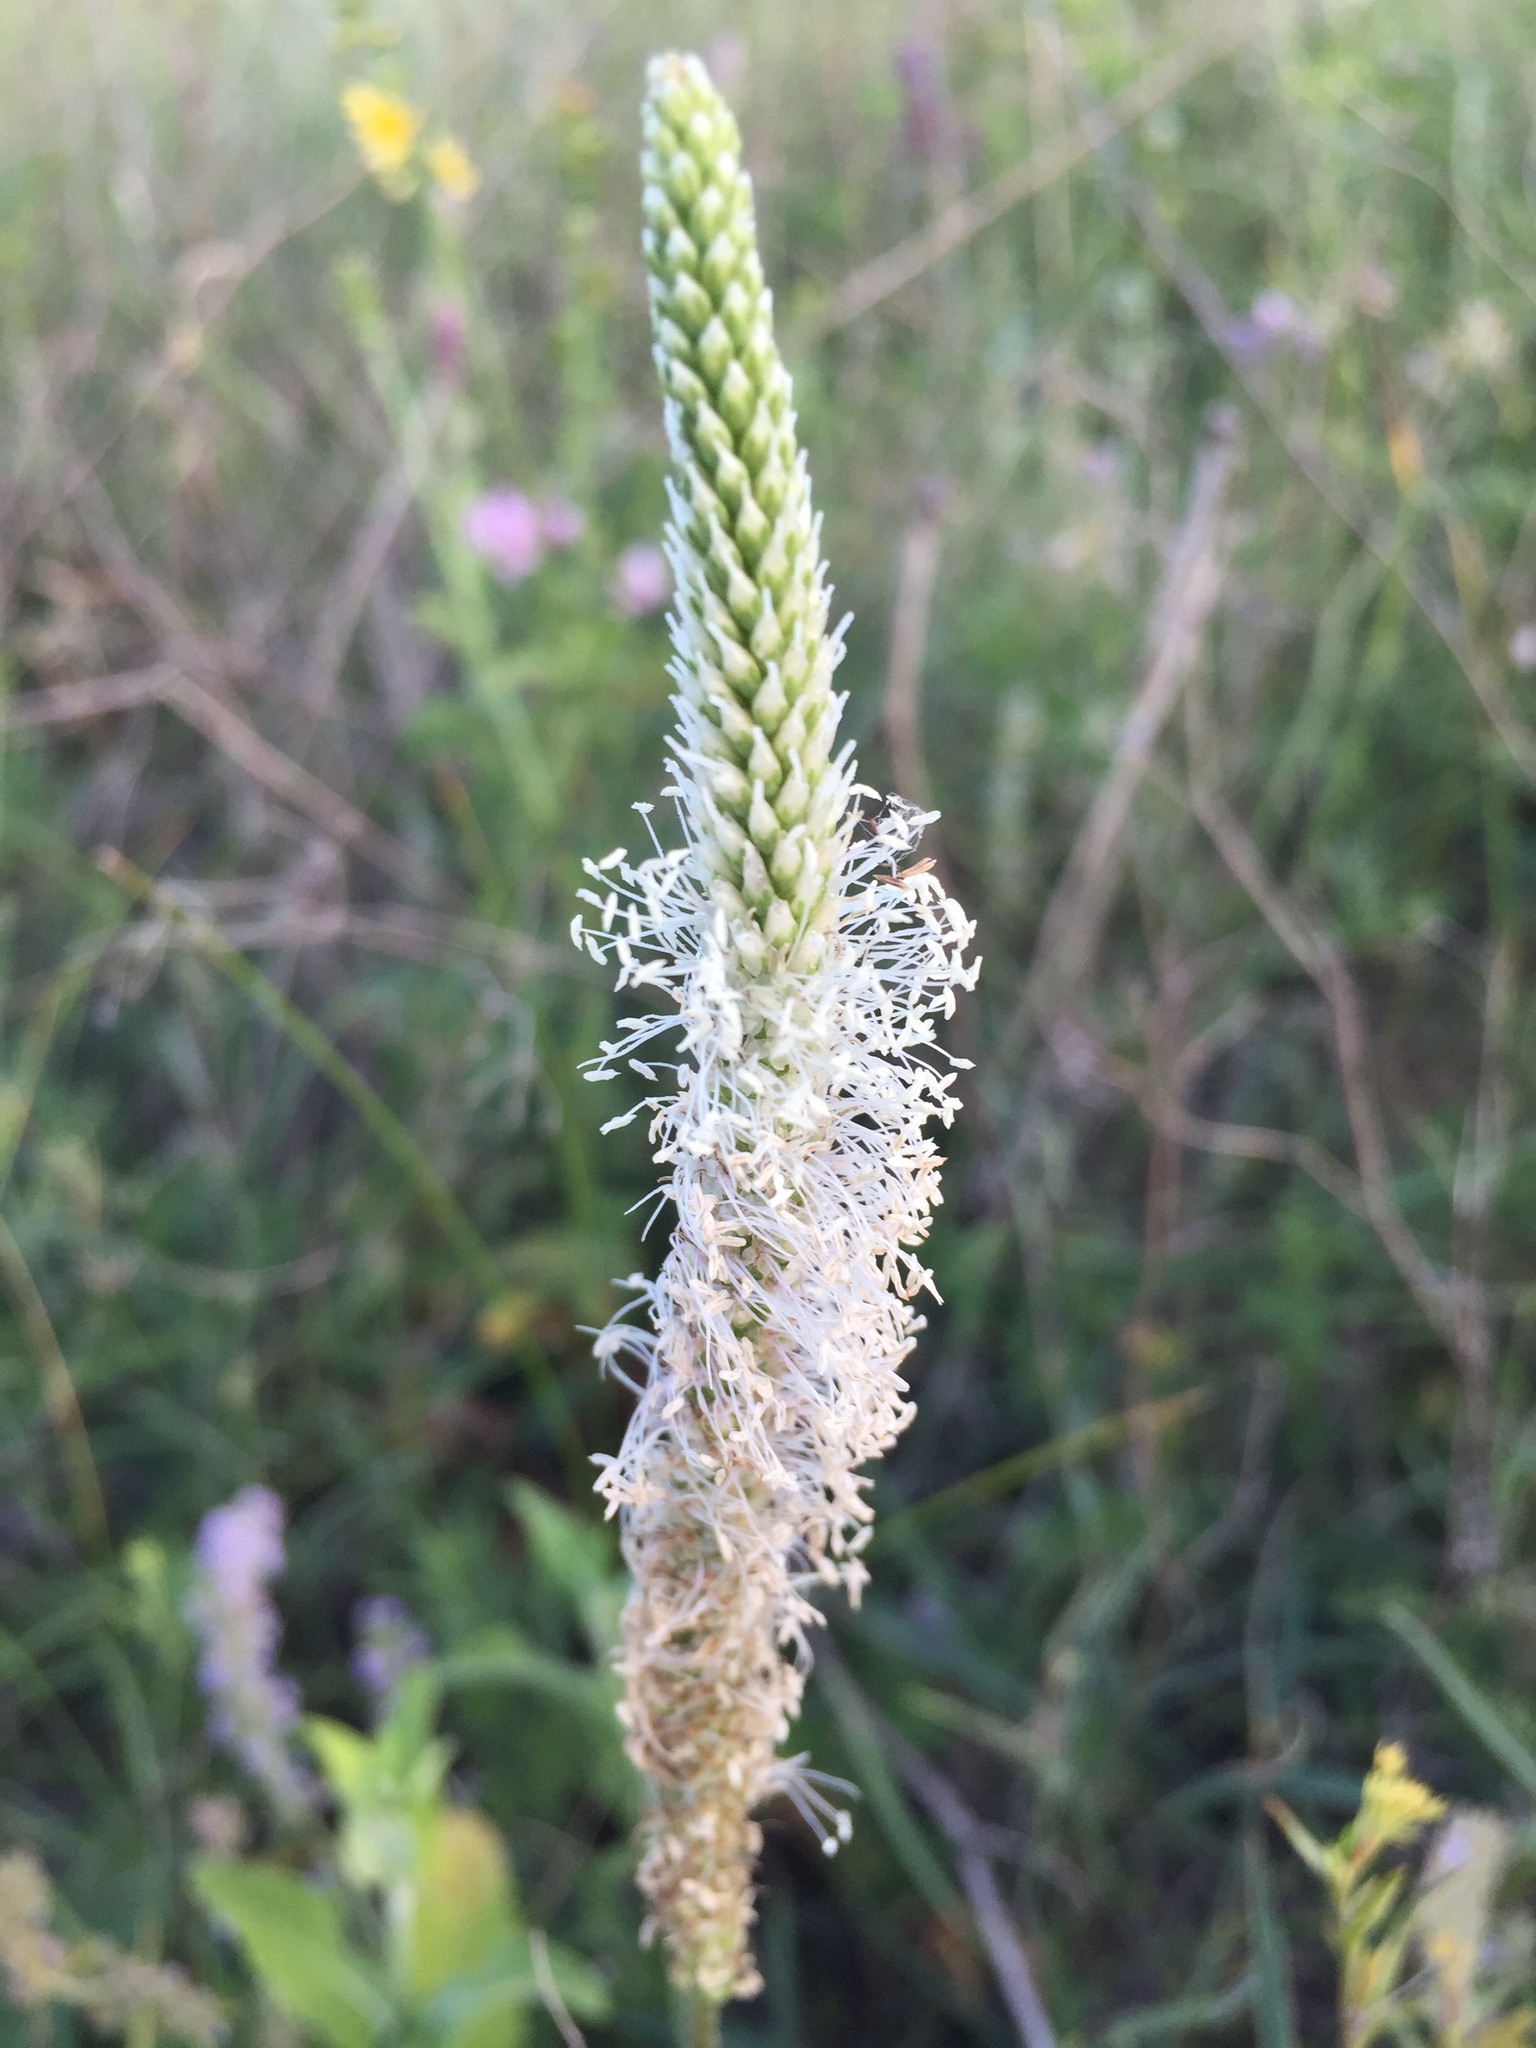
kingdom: Plantae
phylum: Tracheophyta
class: Magnoliopsida
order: Lamiales
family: Plantaginaceae
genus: Plantago
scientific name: Plantago media
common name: Hoary plantain
